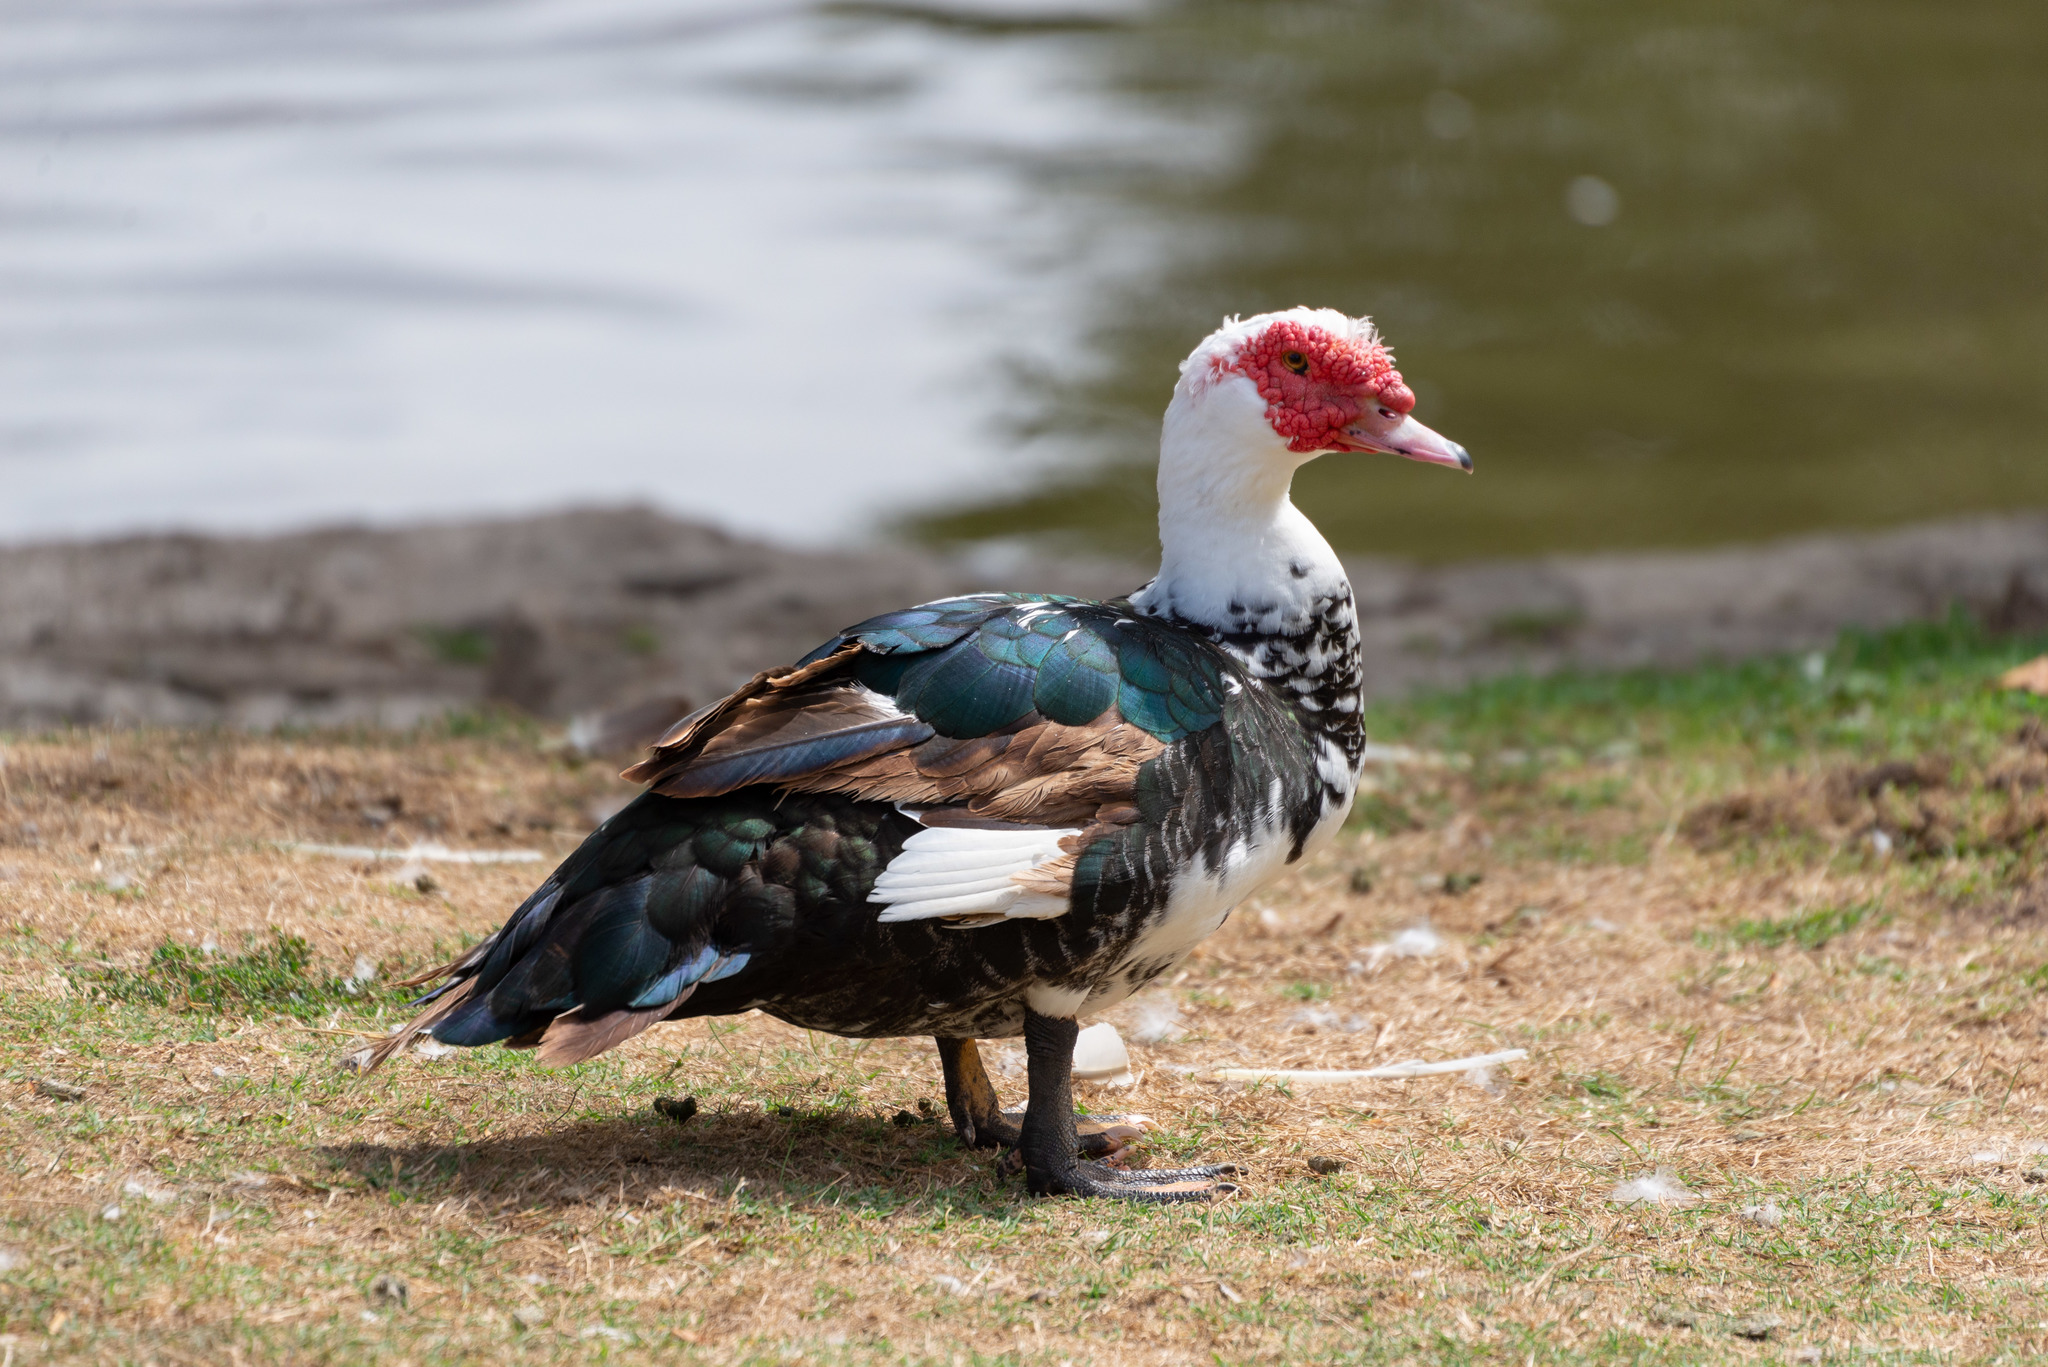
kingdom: Animalia
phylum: Chordata
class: Aves
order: Anseriformes
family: Anatidae
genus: Cairina
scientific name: Cairina moschata
